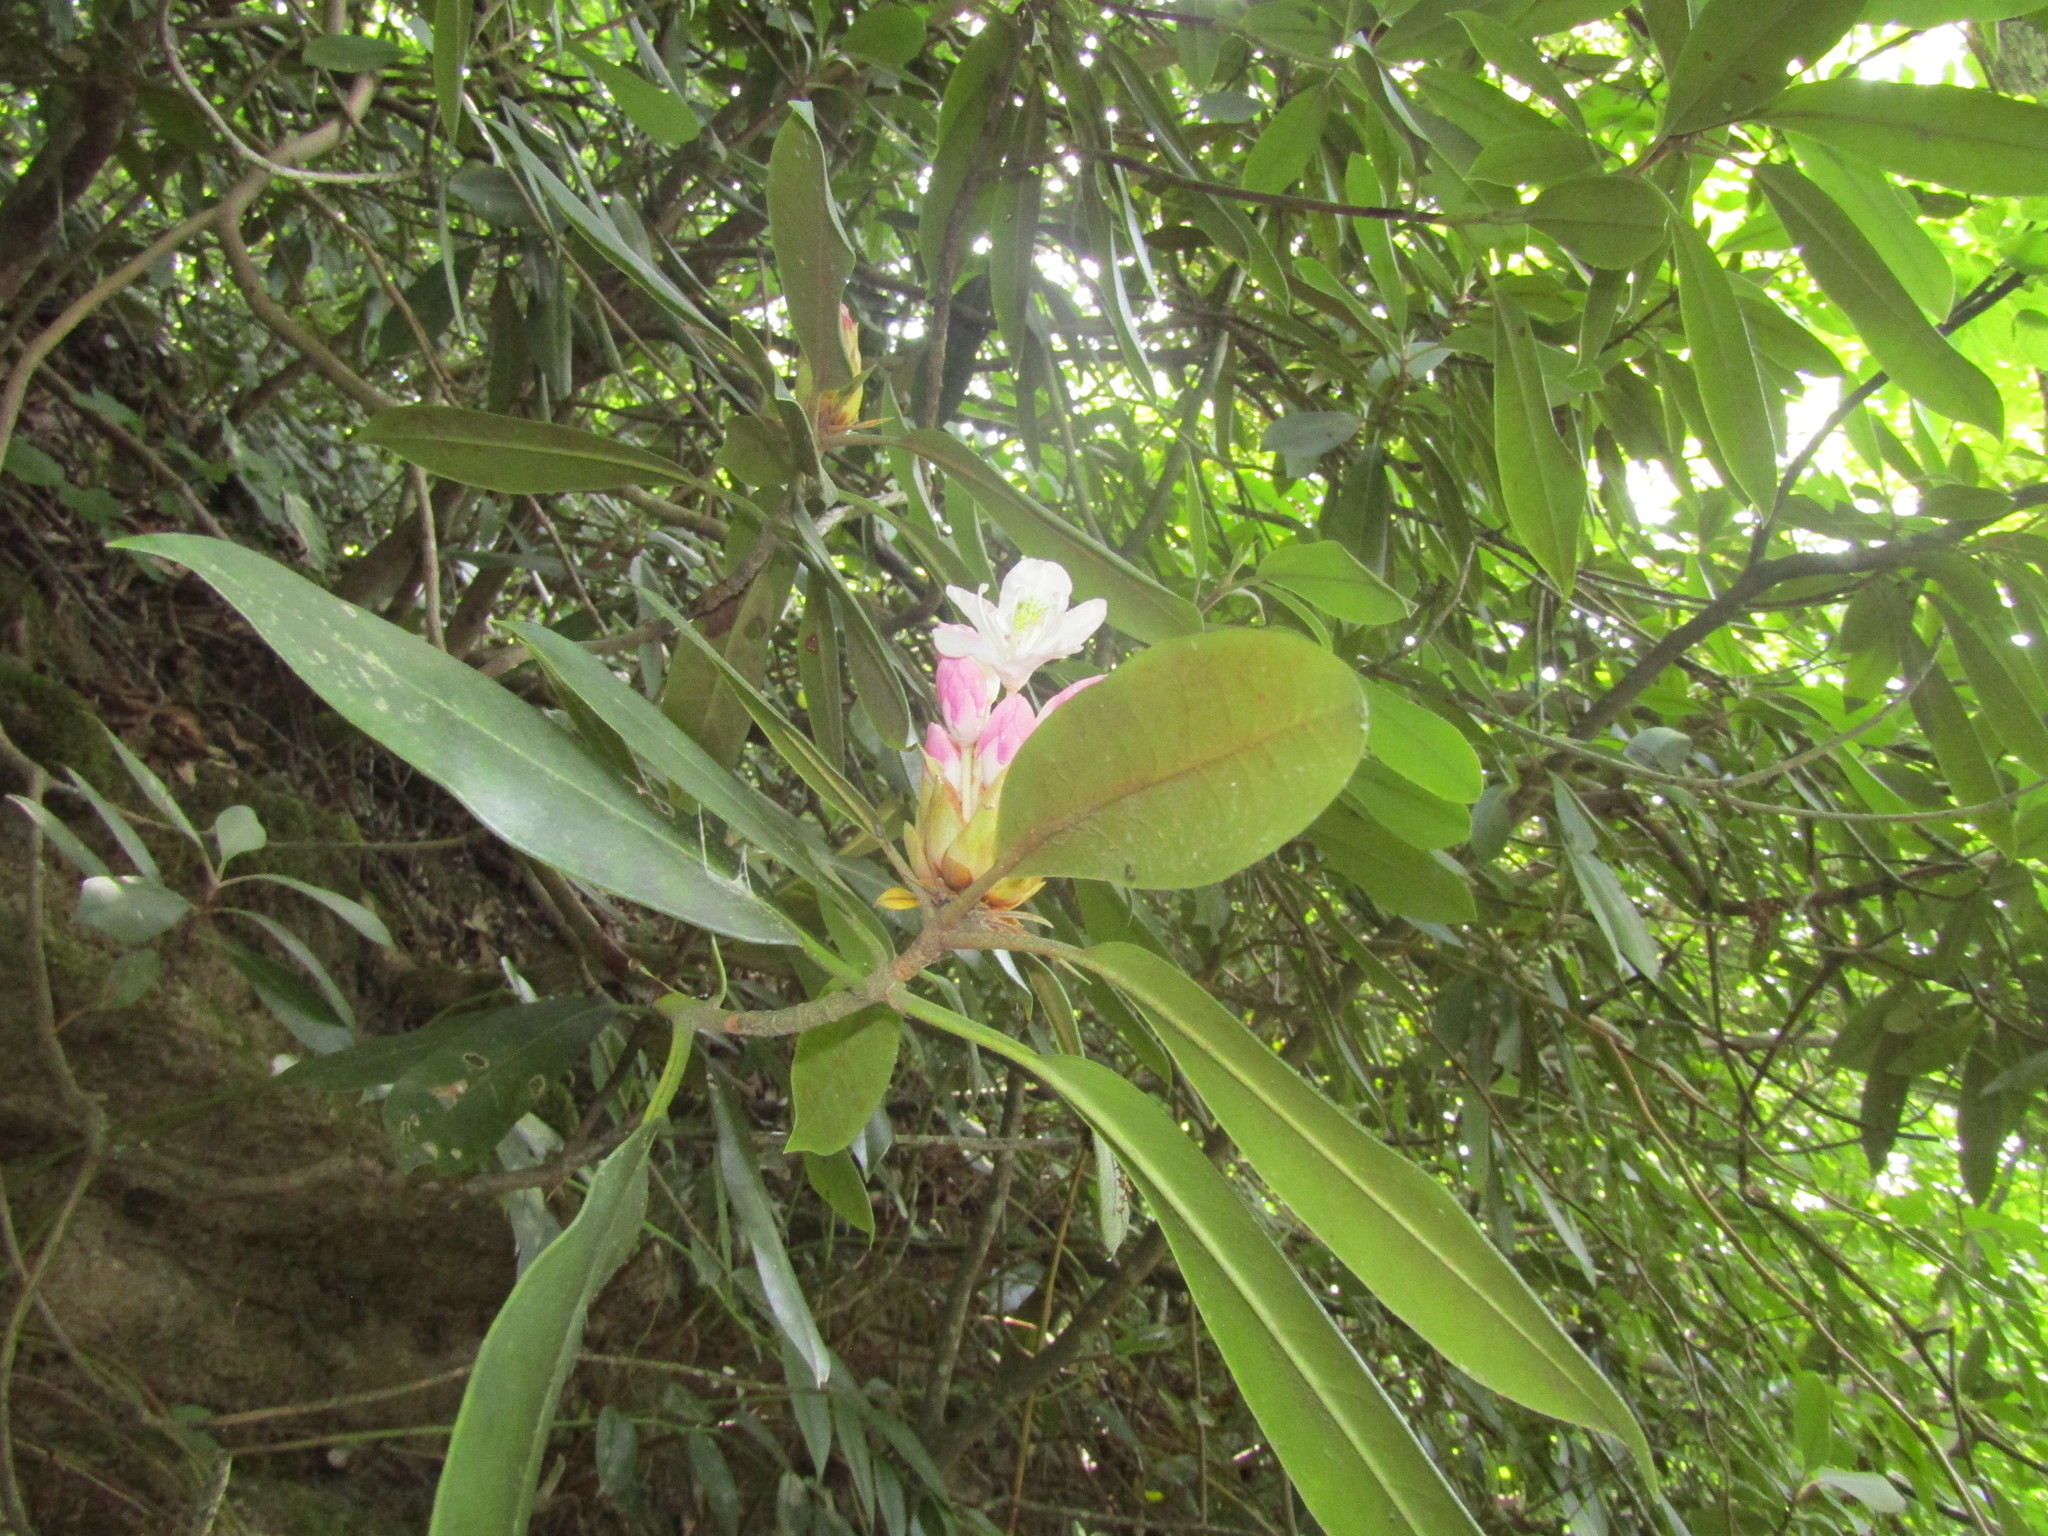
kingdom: Plantae
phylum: Tracheophyta
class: Magnoliopsida
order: Ericales
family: Ericaceae
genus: Rhododendron
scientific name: Rhododendron maximum
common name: Great rhododendron
